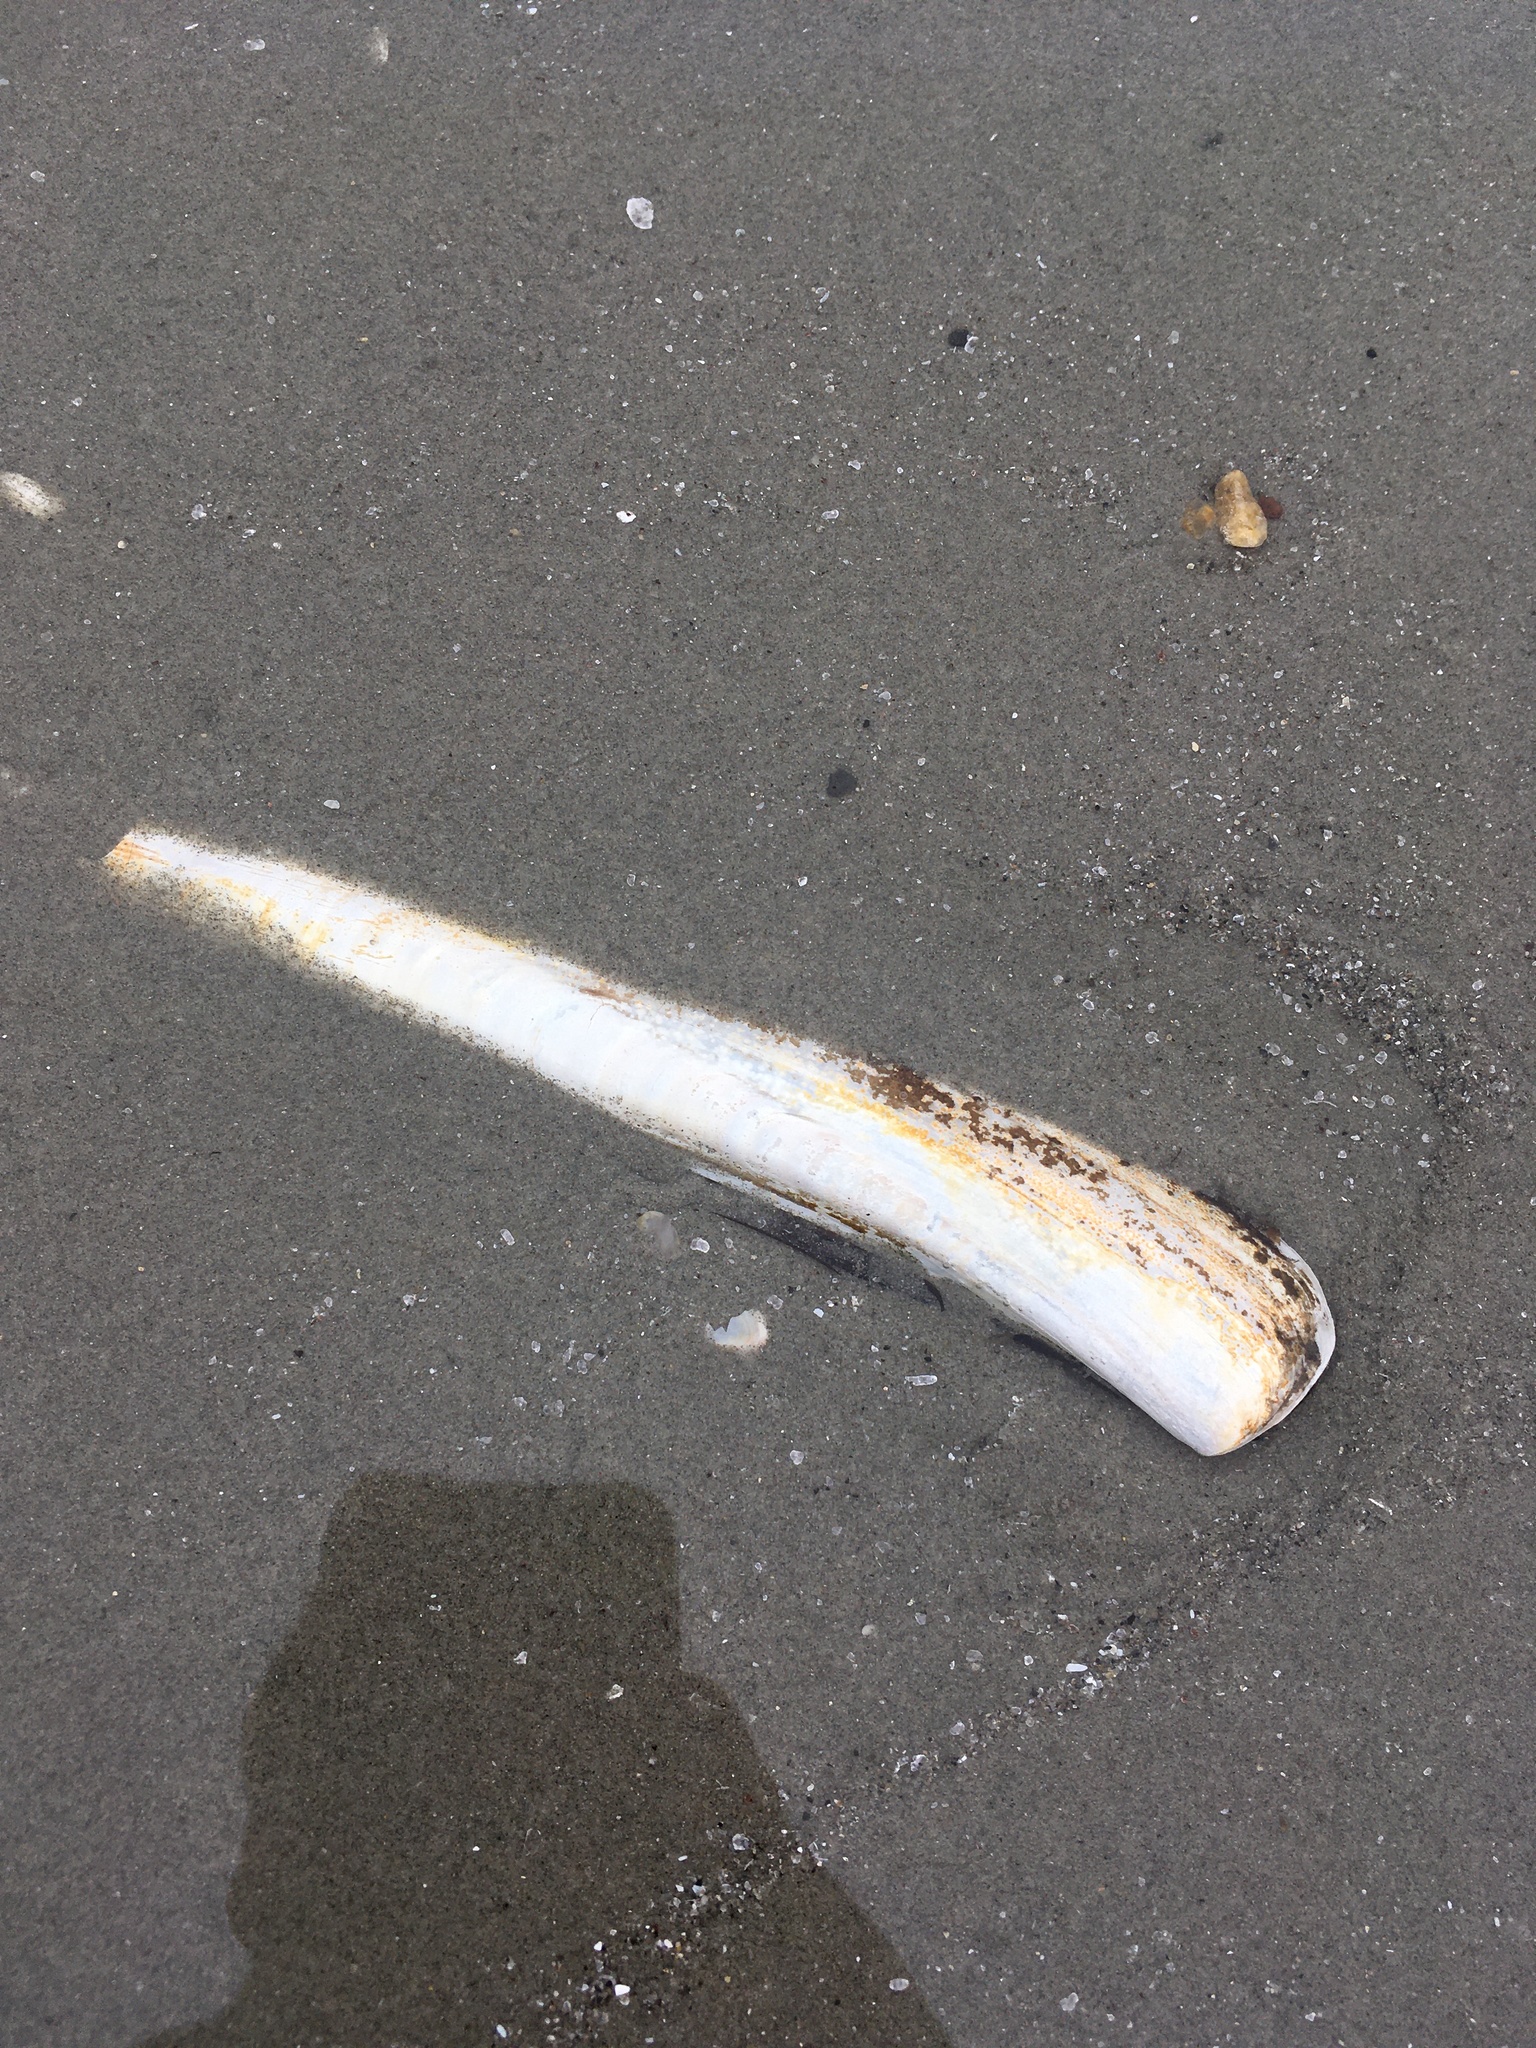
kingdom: Animalia
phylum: Mollusca
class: Bivalvia
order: Adapedonta
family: Pharidae
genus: Ensis
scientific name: Ensis leei
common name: American jack knife clam
